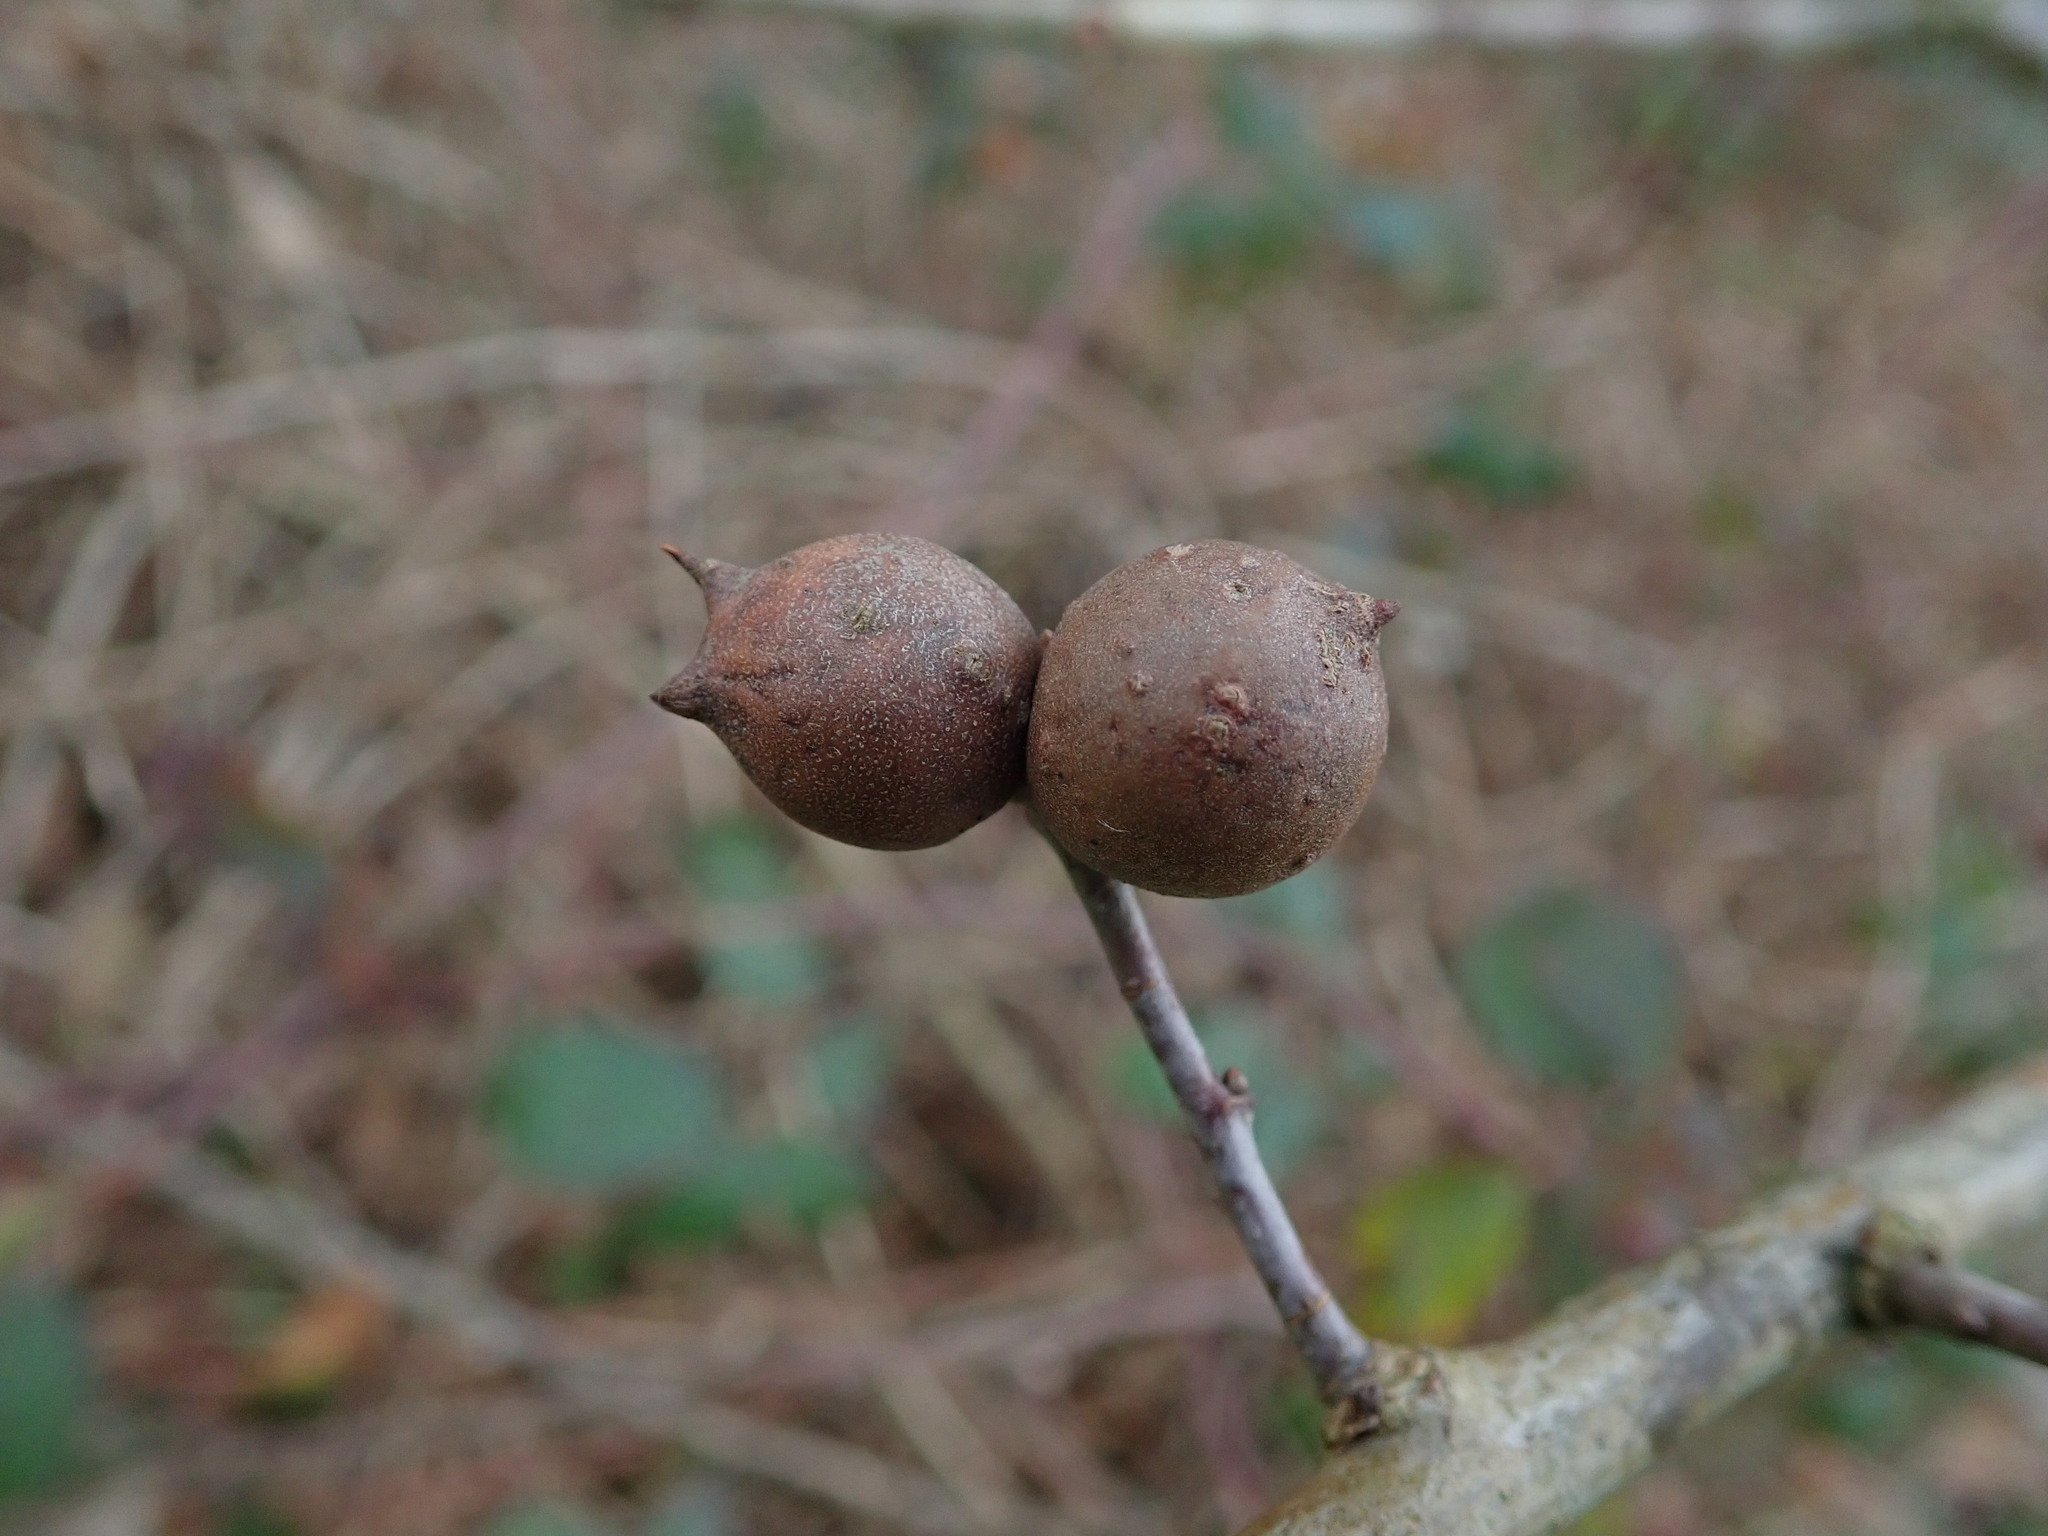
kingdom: Animalia
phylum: Arthropoda
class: Insecta
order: Hymenoptera
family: Cynipidae
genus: Andricus
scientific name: Andricus kollari
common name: Marble gall
